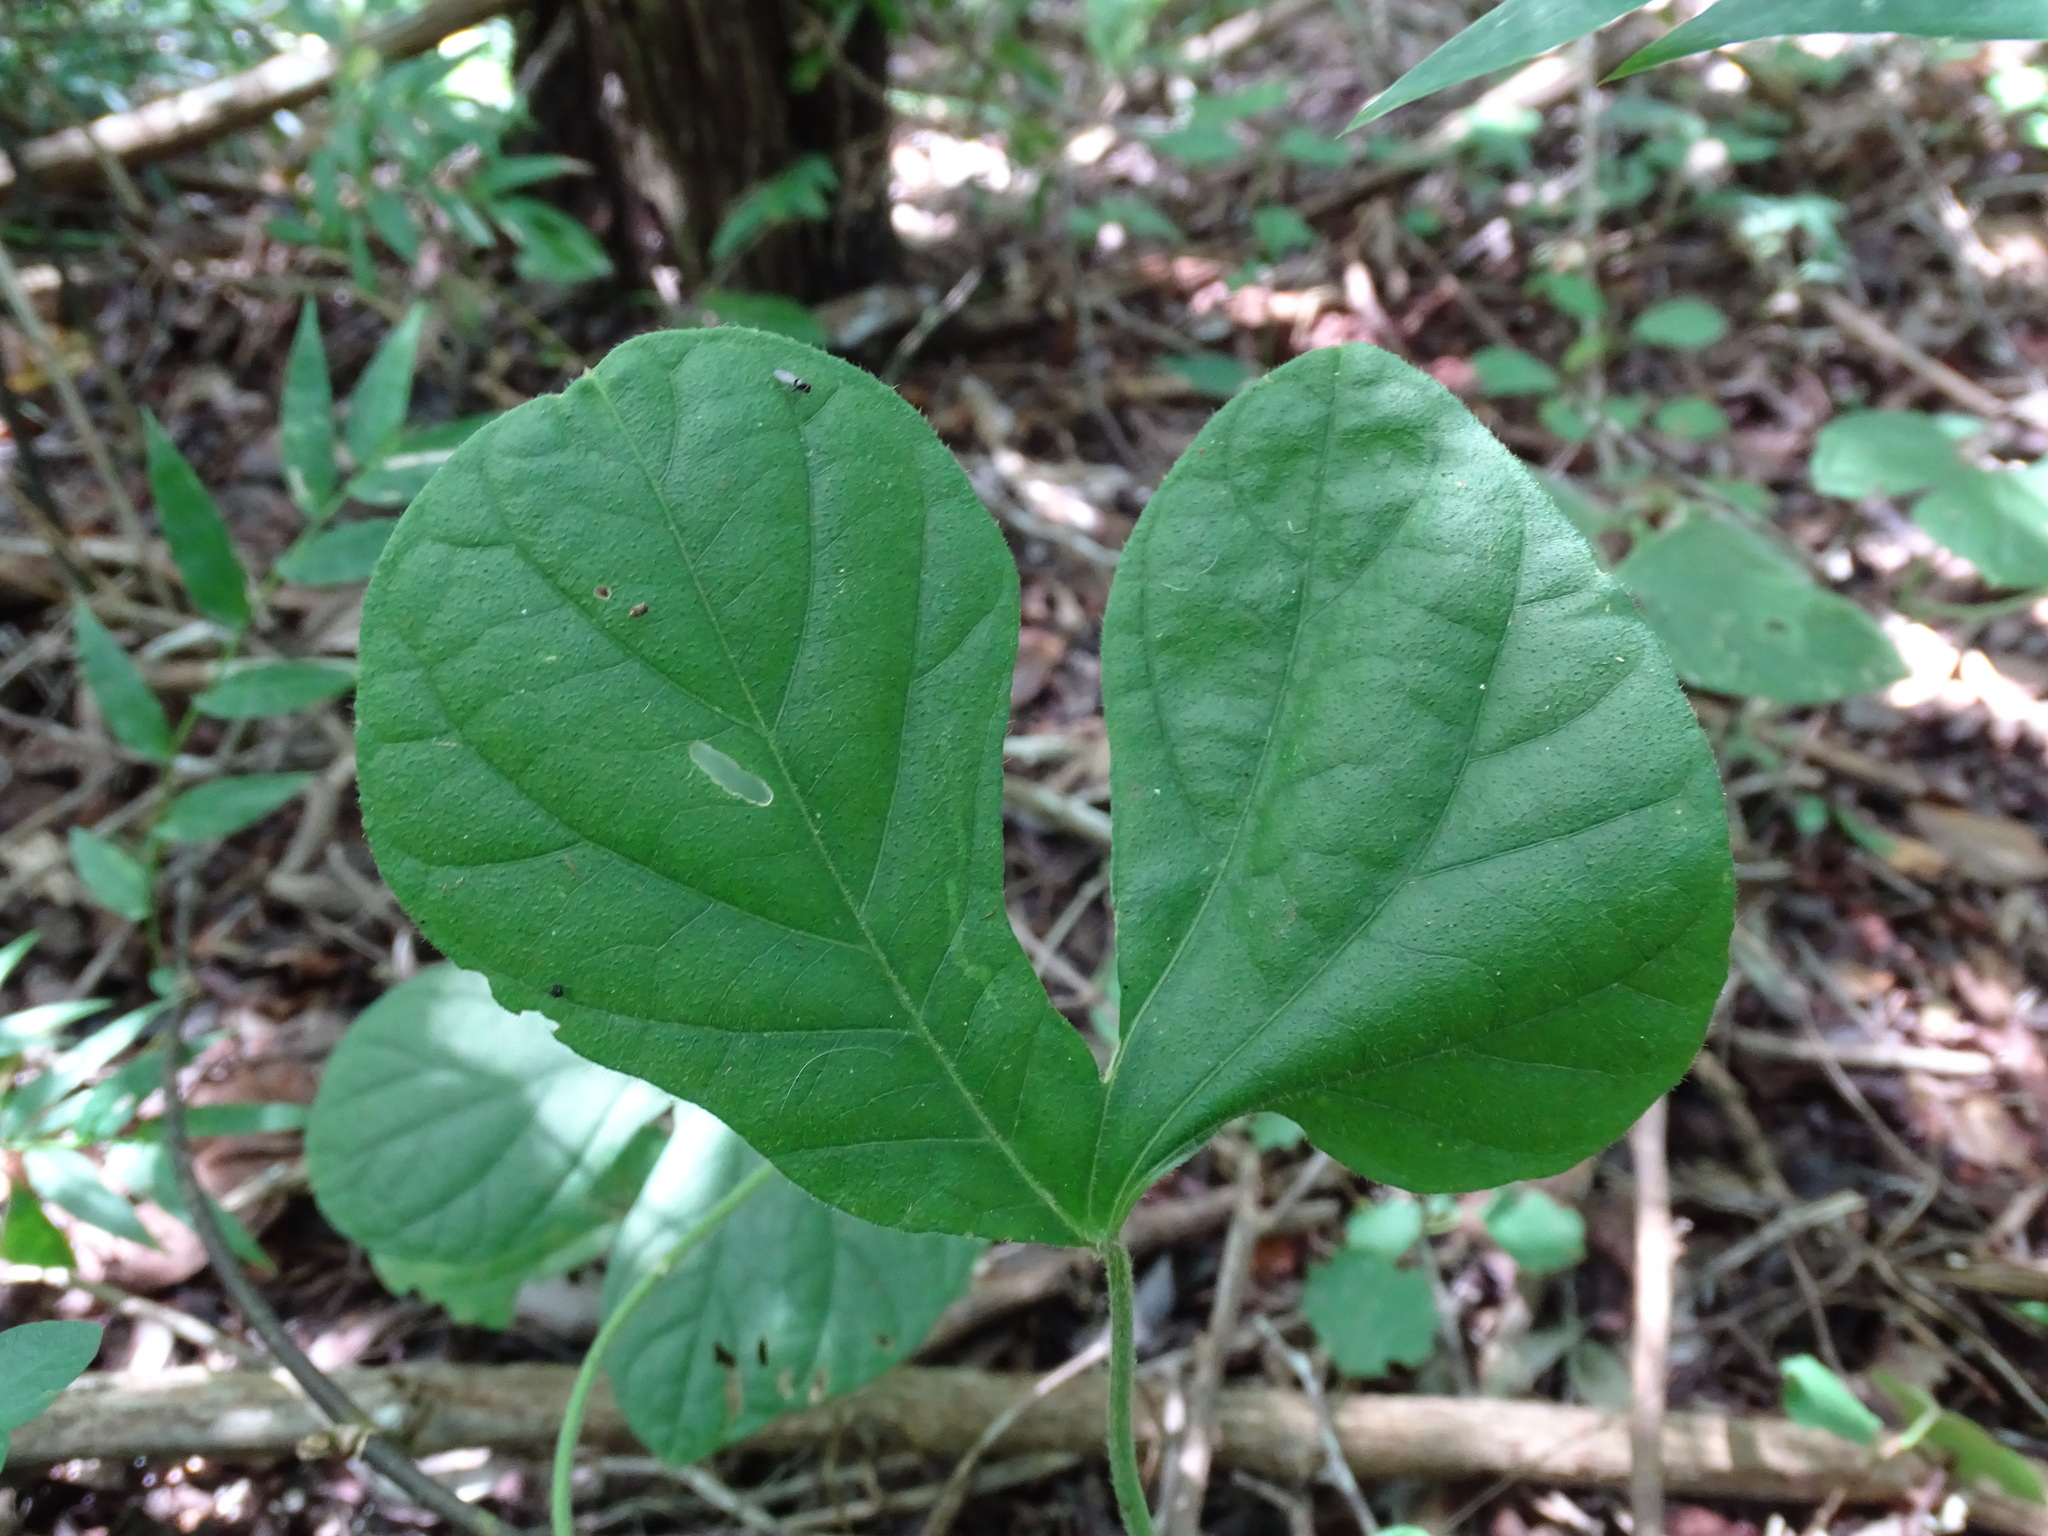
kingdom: Plantae
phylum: Tracheophyta
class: Magnoliopsida
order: Solanales
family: Convolvulaceae
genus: Ipomoea
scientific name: Ipomoea peteri
